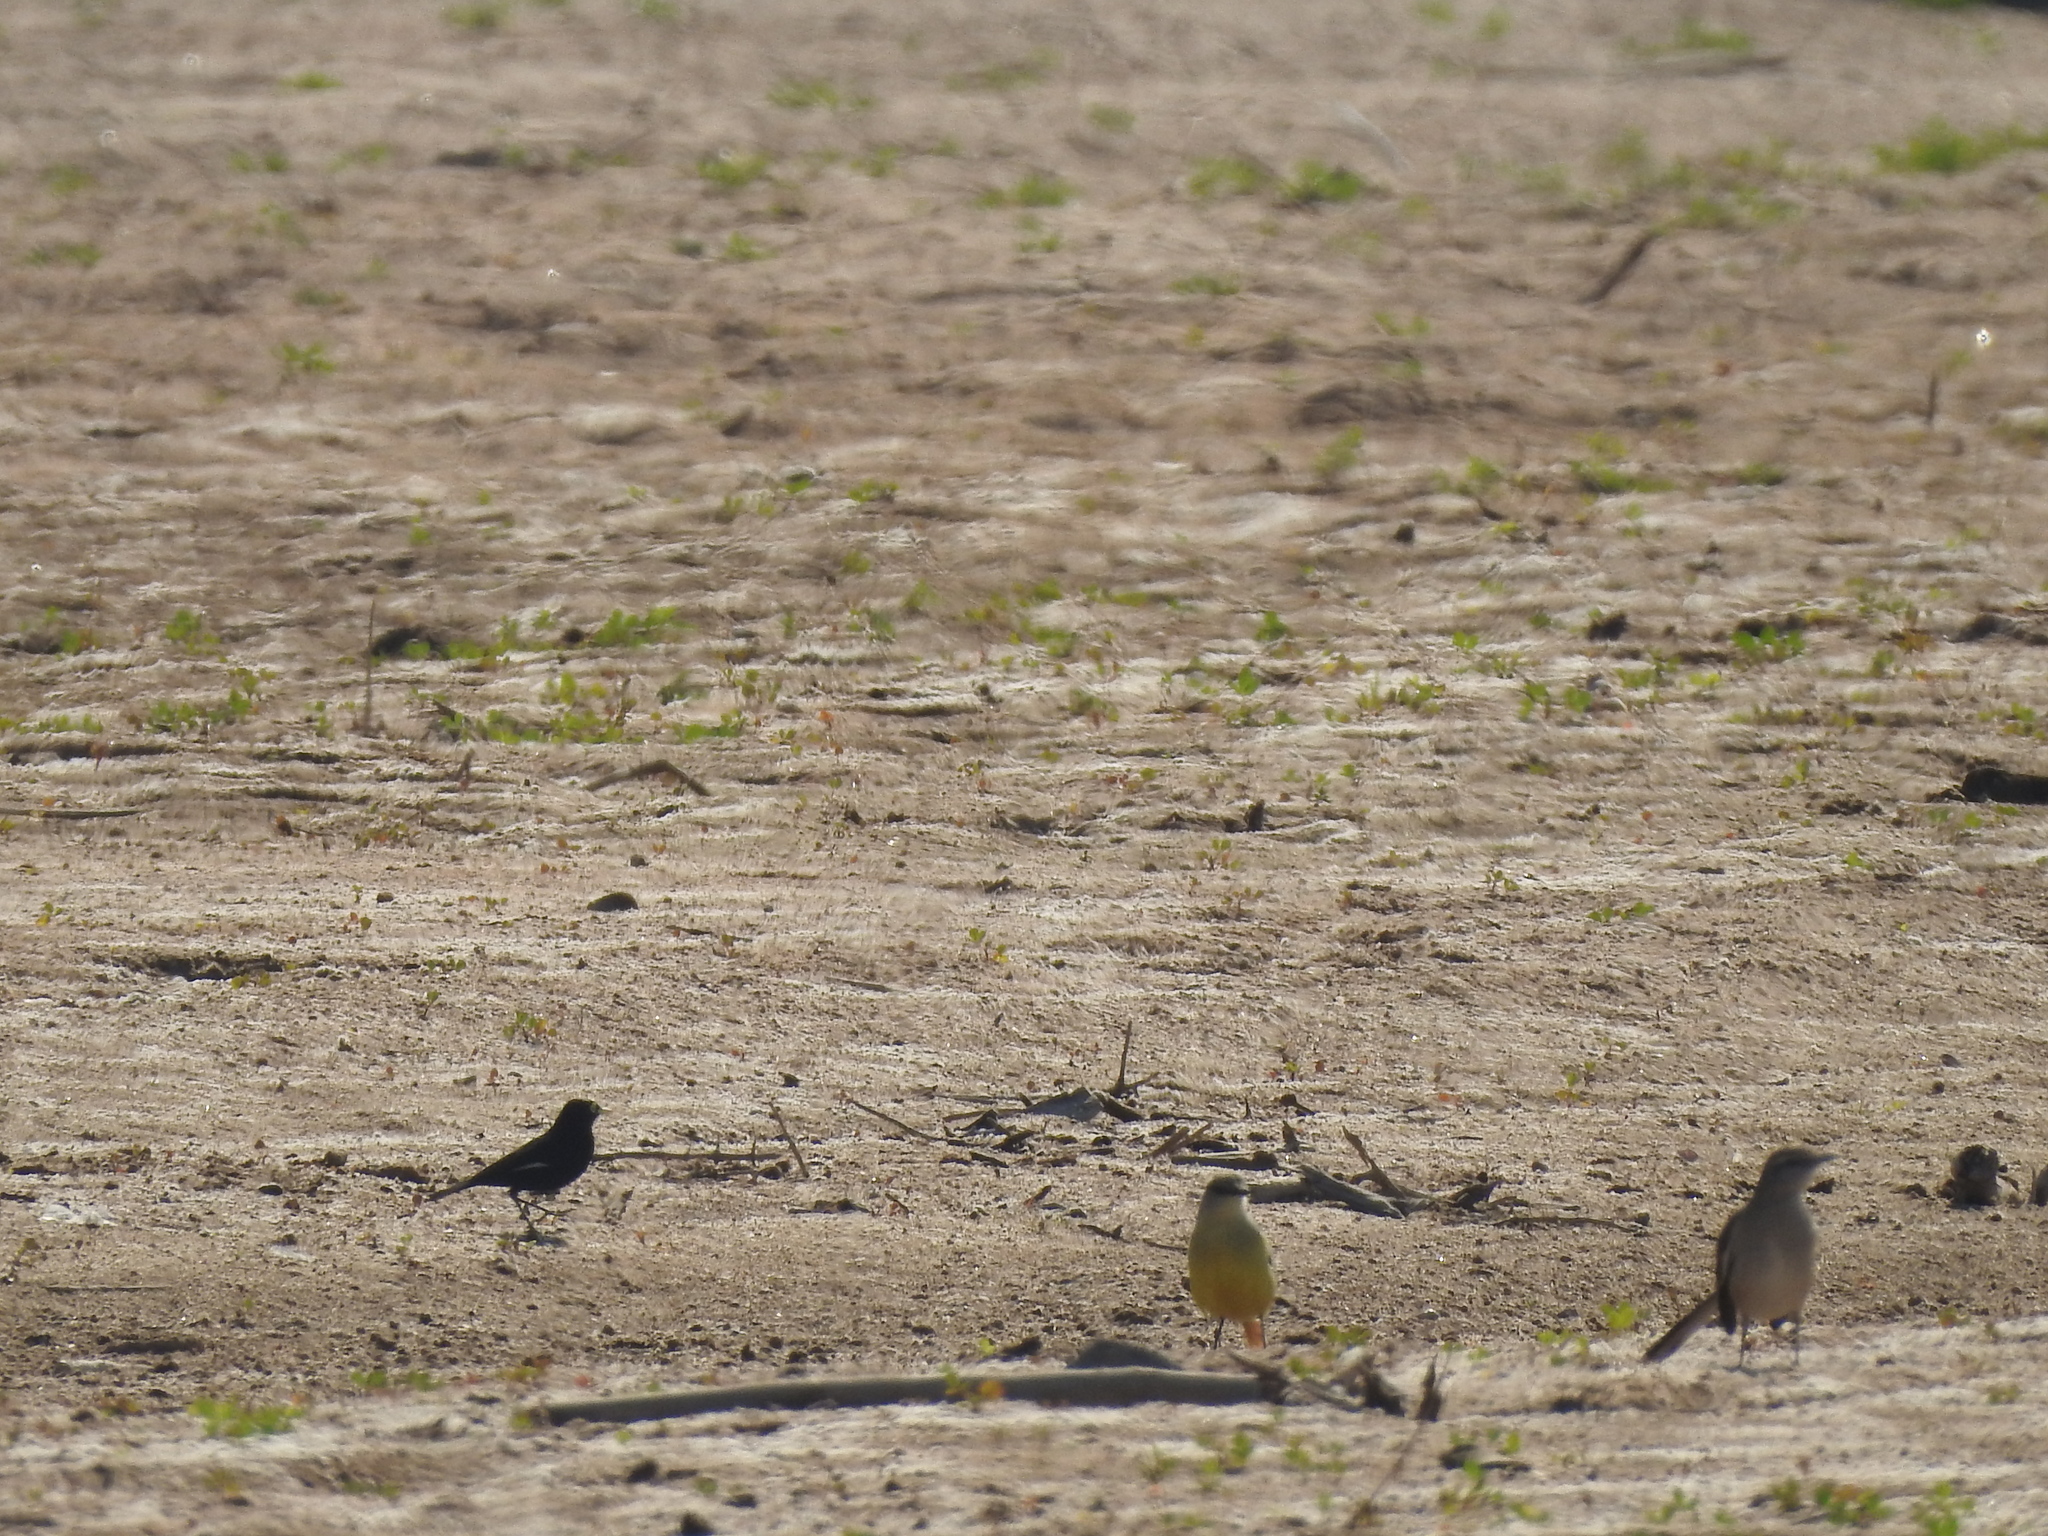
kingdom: Animalia
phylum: Chordata
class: Aves
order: Passeriformes
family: Tyrannidae
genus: Machetornis
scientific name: Machetornis rixosa
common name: Cattle tyrant
